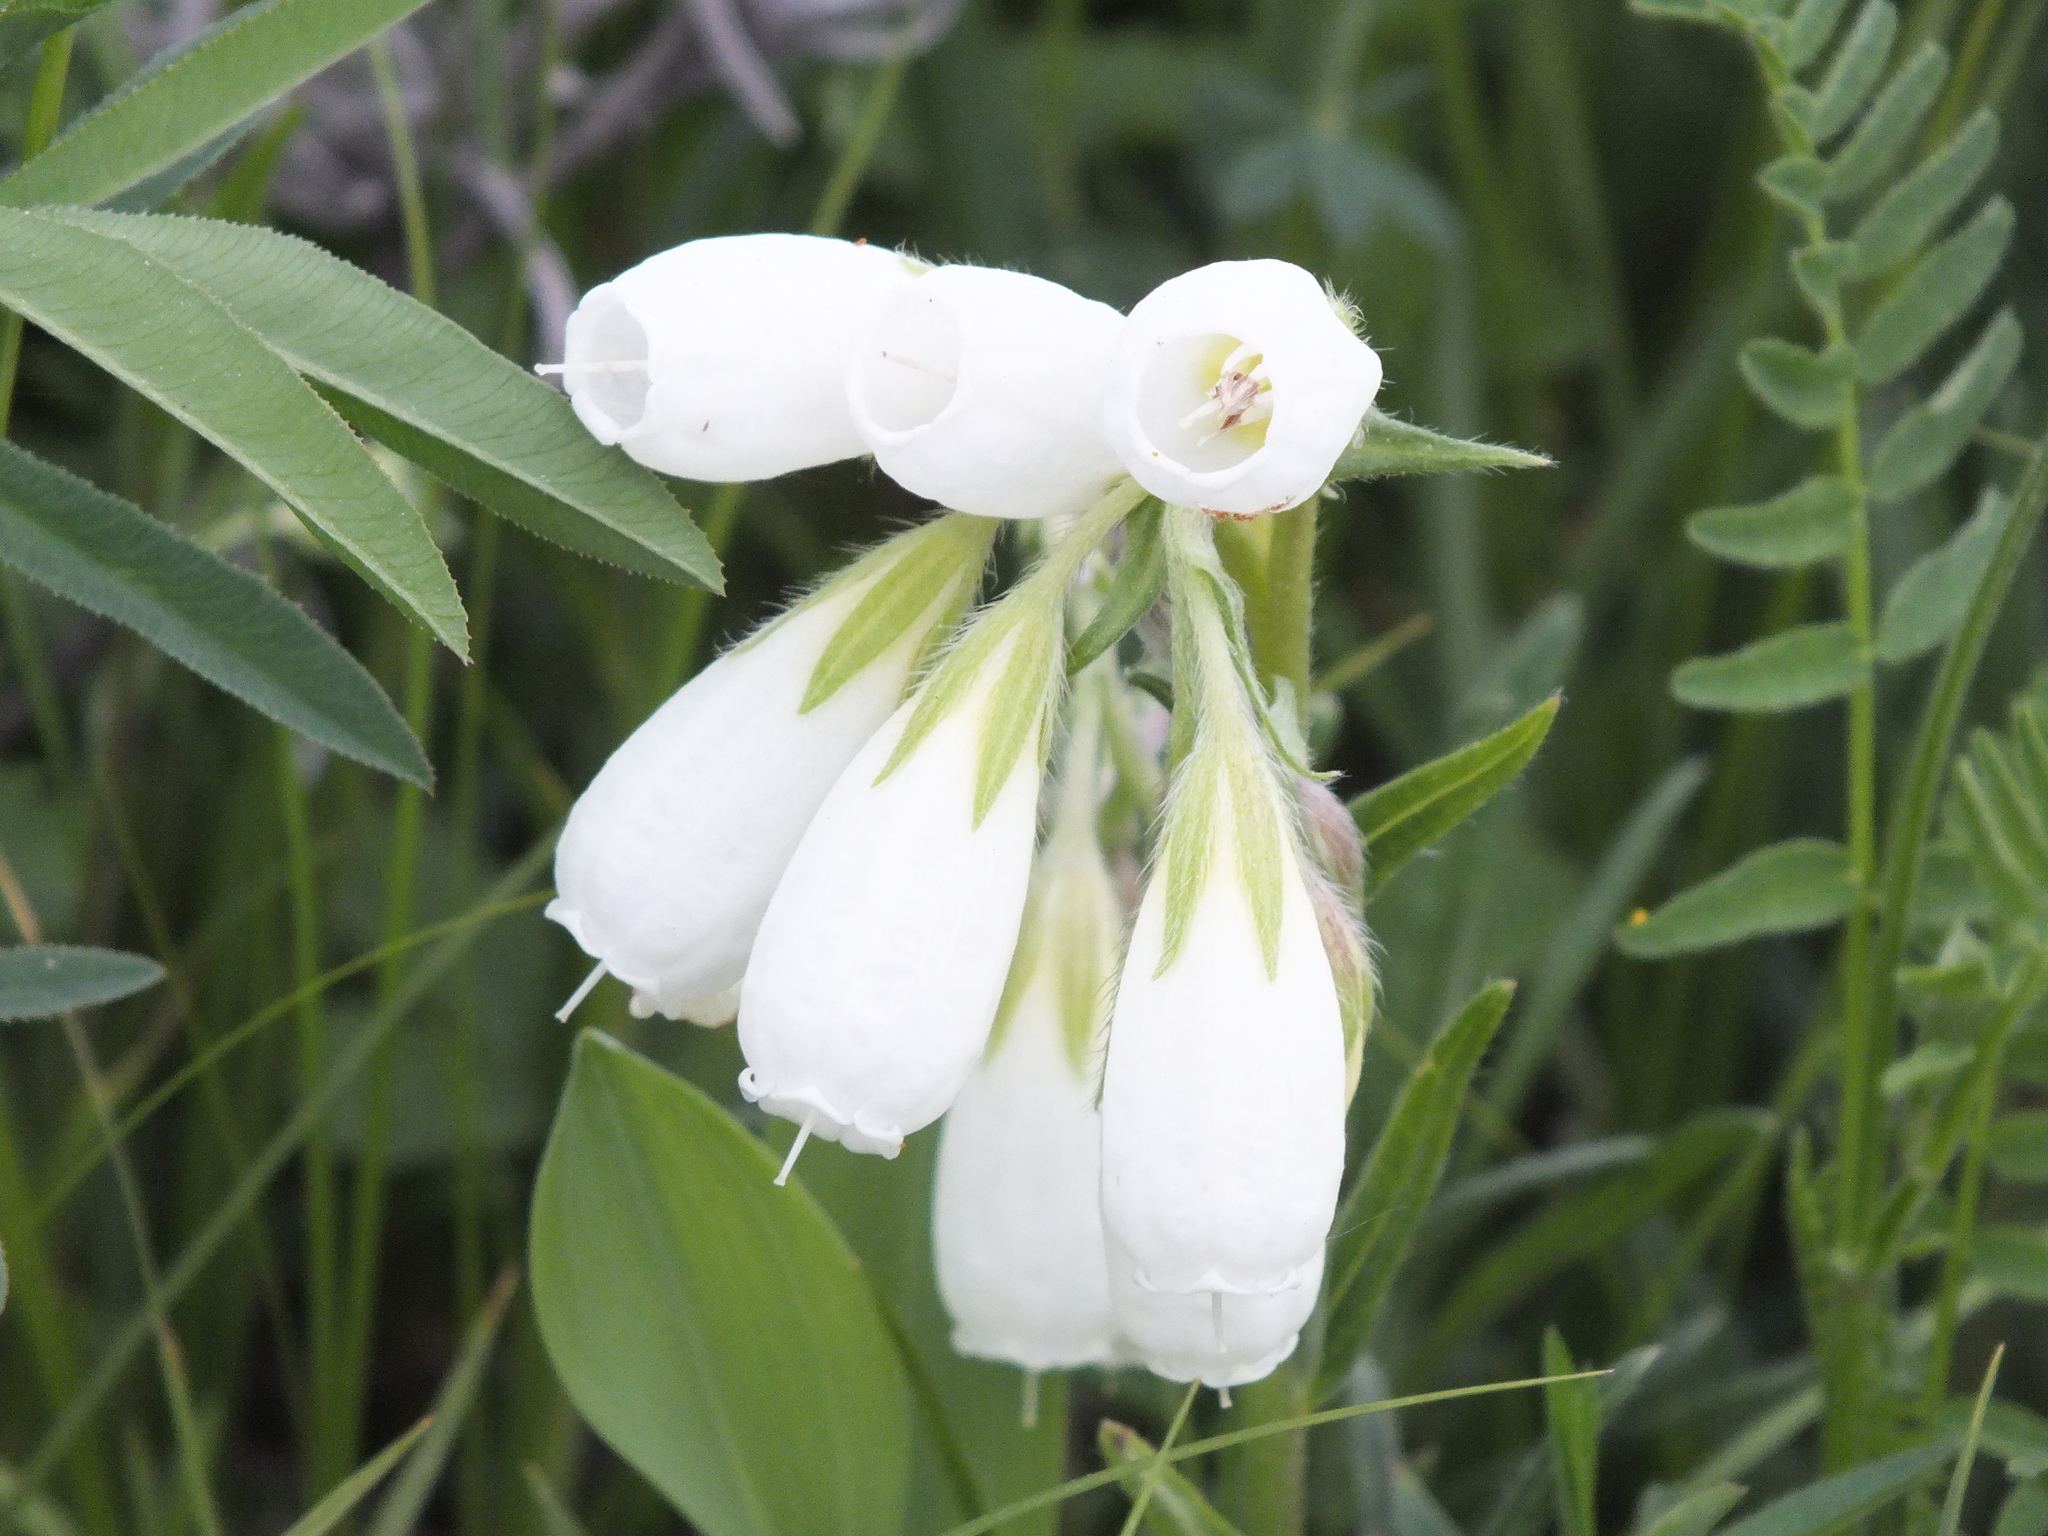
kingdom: Plantae
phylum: Tracheophyta
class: Magnoliopsida
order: Boraginales
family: Boraginaceae
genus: Onosma
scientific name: Onosma simplicissima
